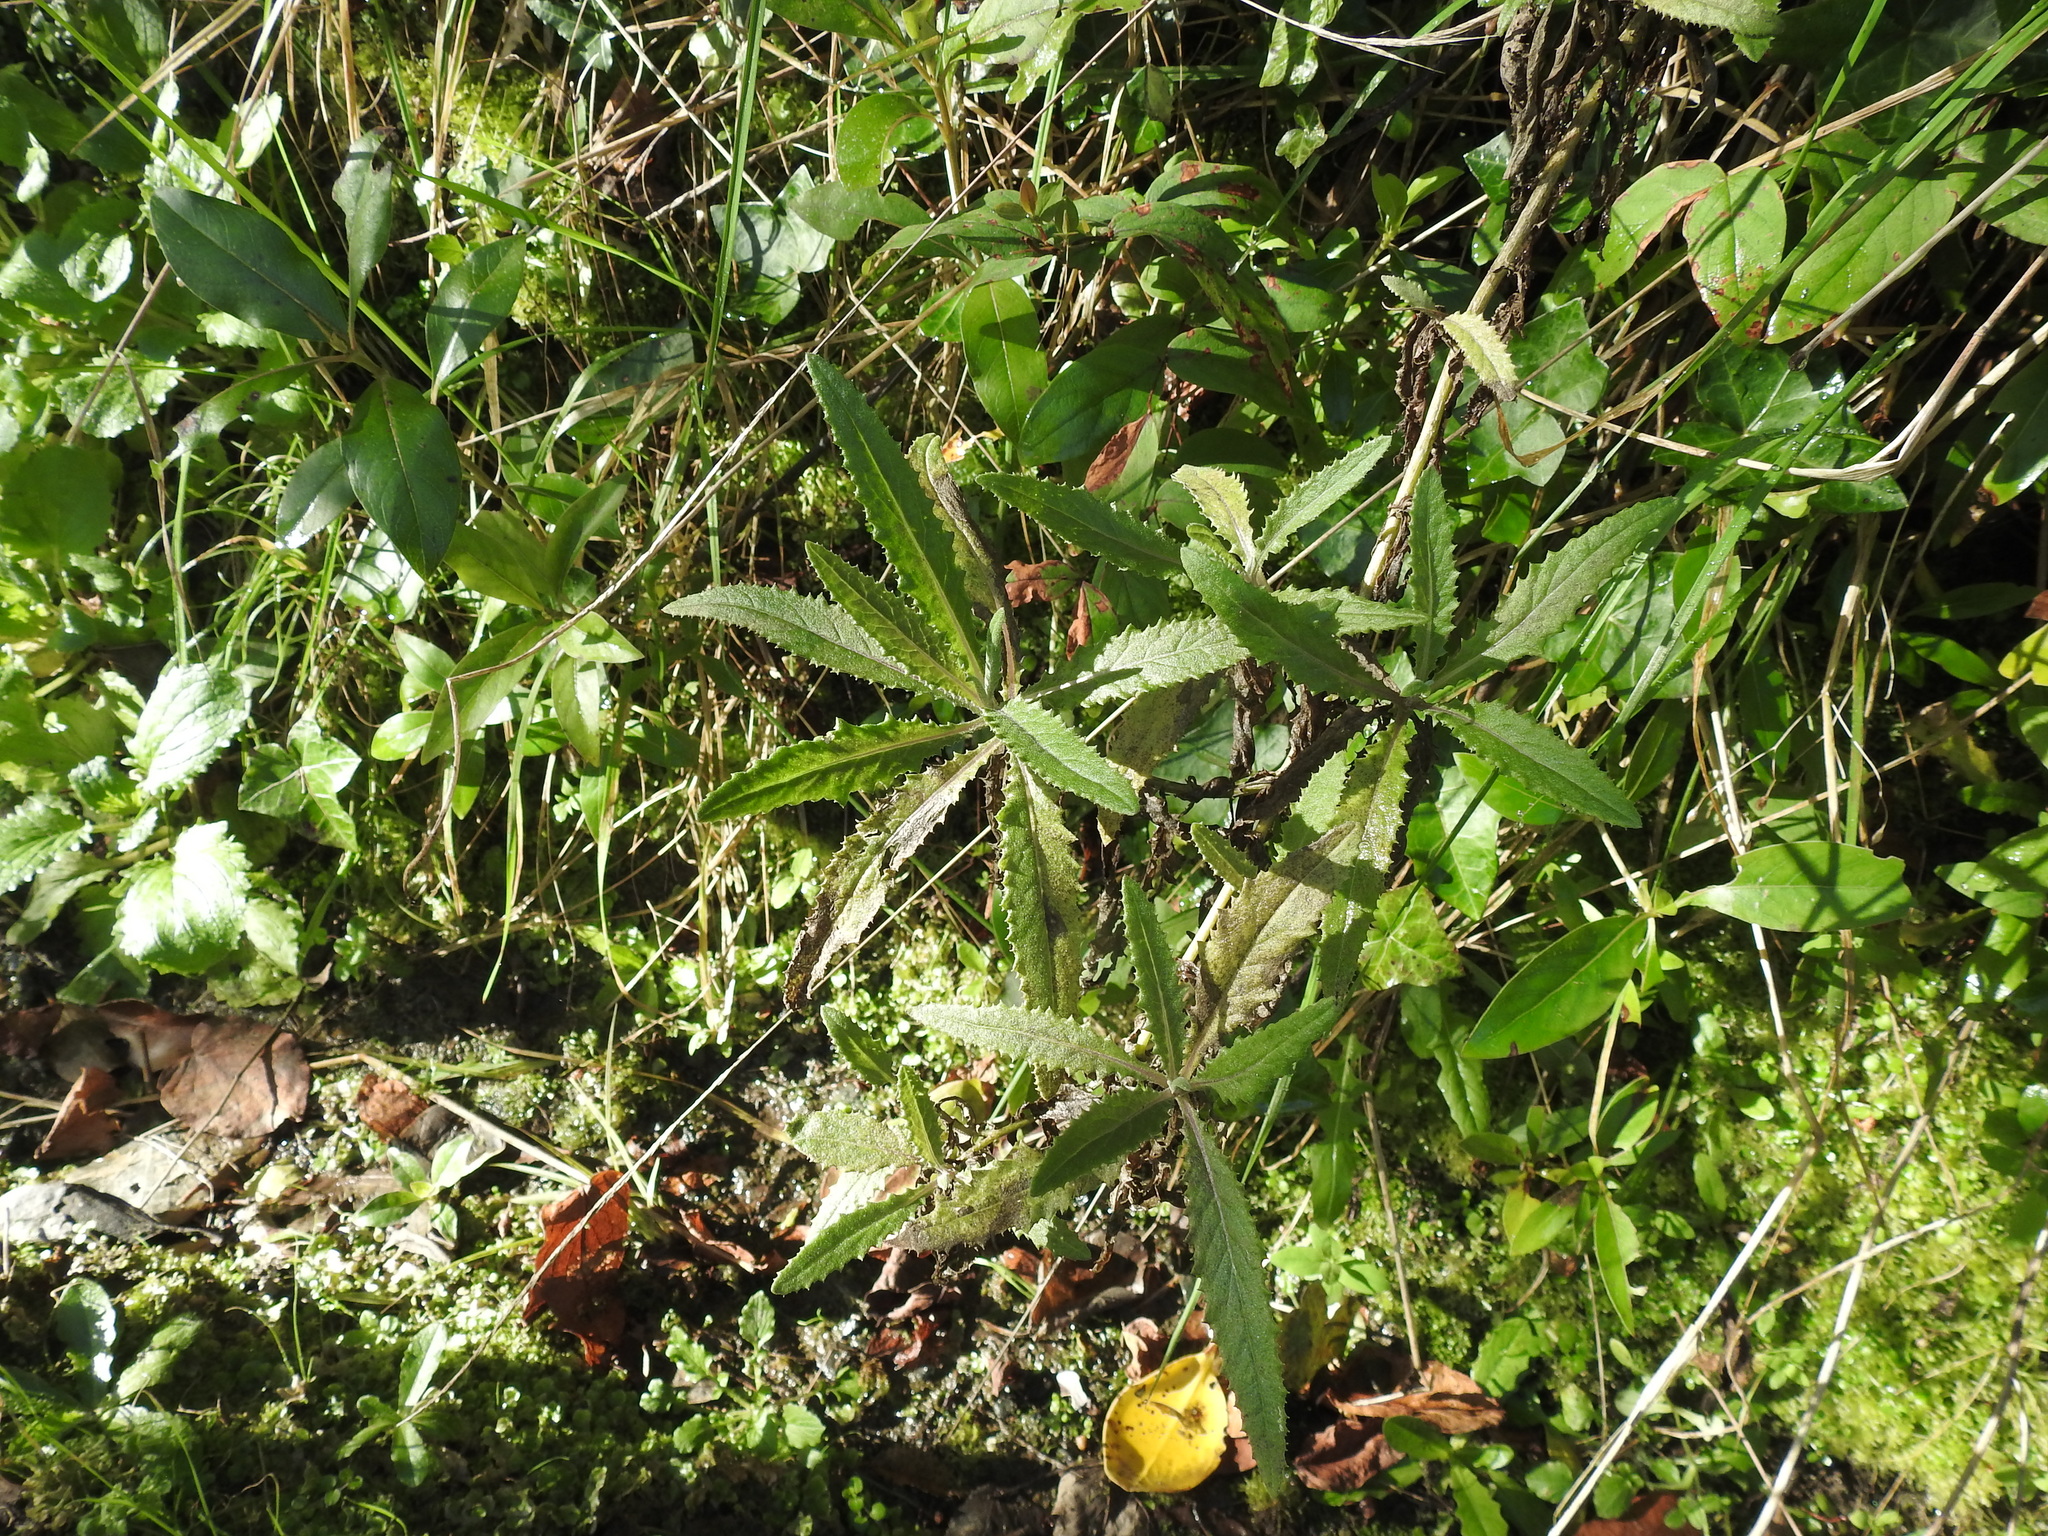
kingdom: Plantae
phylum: Tracheophyta
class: Magnoliopsida
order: Asterales
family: Asteraceae
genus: Senecio
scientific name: Senecio minimus
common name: Toothed fireweed
